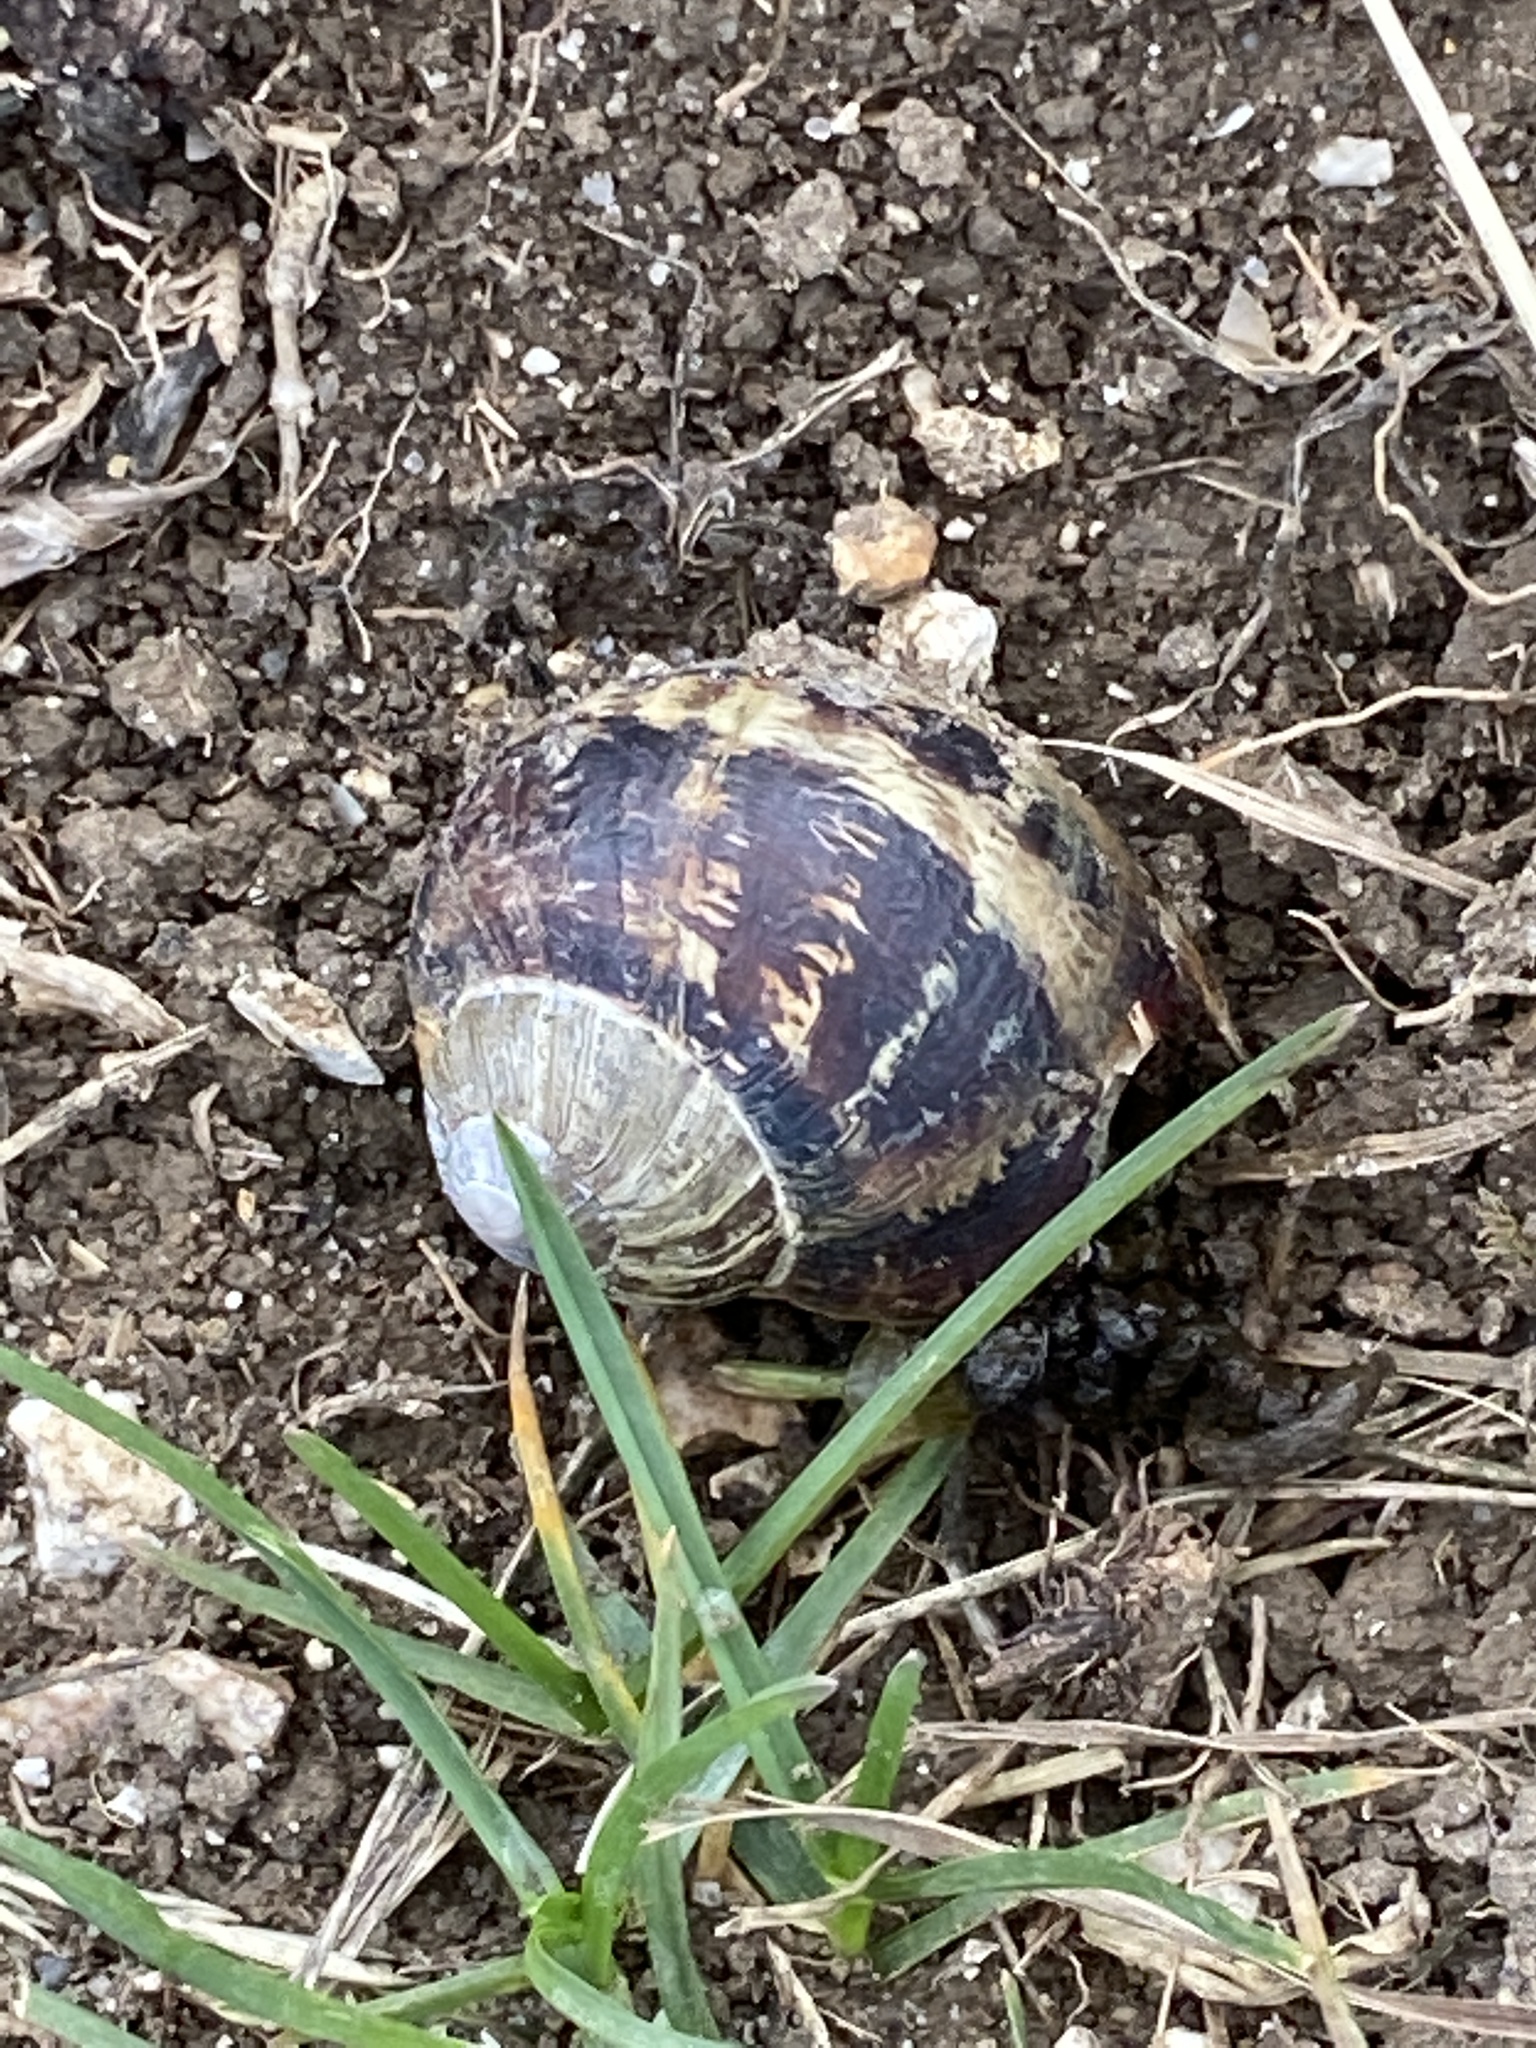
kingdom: Animalia
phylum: Mollusca
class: Gastropoda
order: Stylommatophora
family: Helicidae
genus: Cornu
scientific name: Cornu aspersum
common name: Brown garden snail
